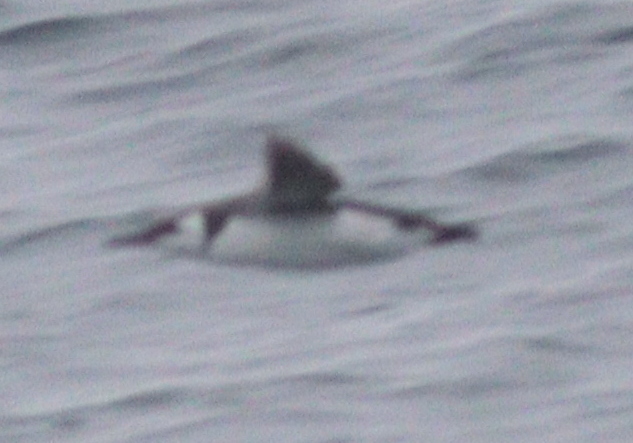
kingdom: Animalia
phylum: Chordata
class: Aves
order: Charadriiformes
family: Alcidae
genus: Uria
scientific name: Uria aalge
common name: Common murre
